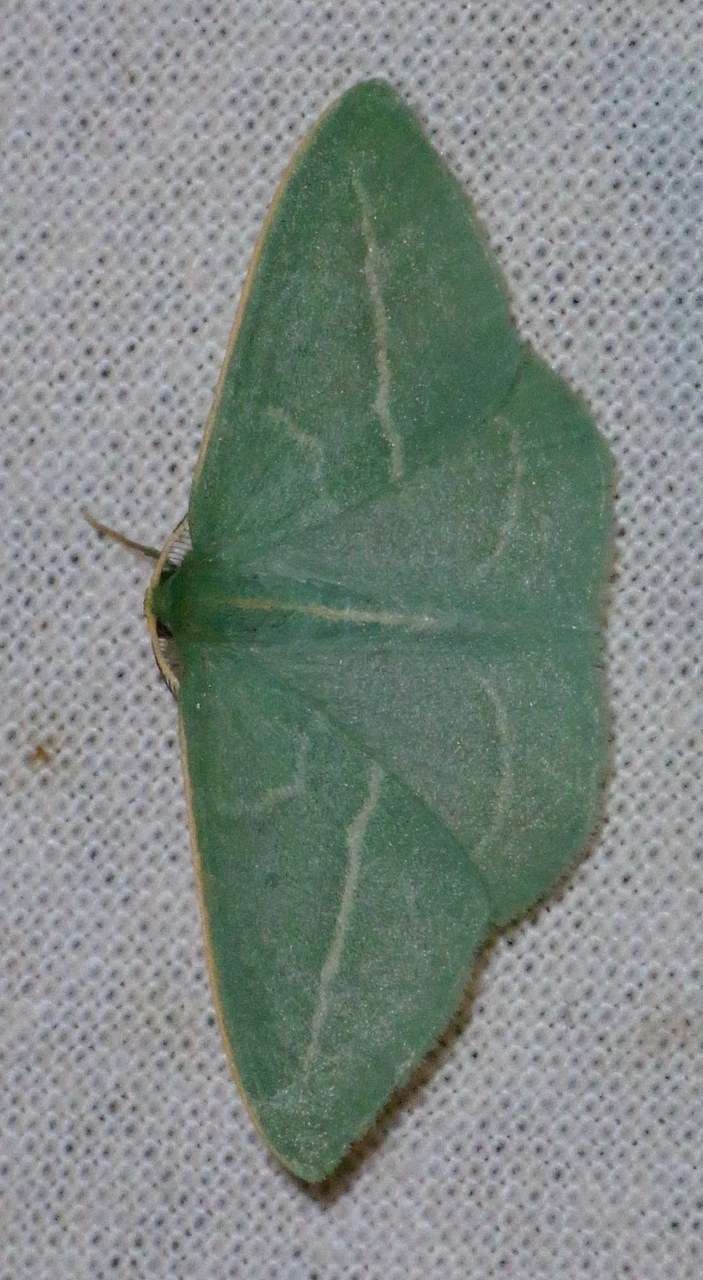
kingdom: Animalia
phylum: Arthropoda
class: Insecta
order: Lepidoptera
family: Geometridae
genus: Chlorocoma
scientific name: Chlorocoma stereota
